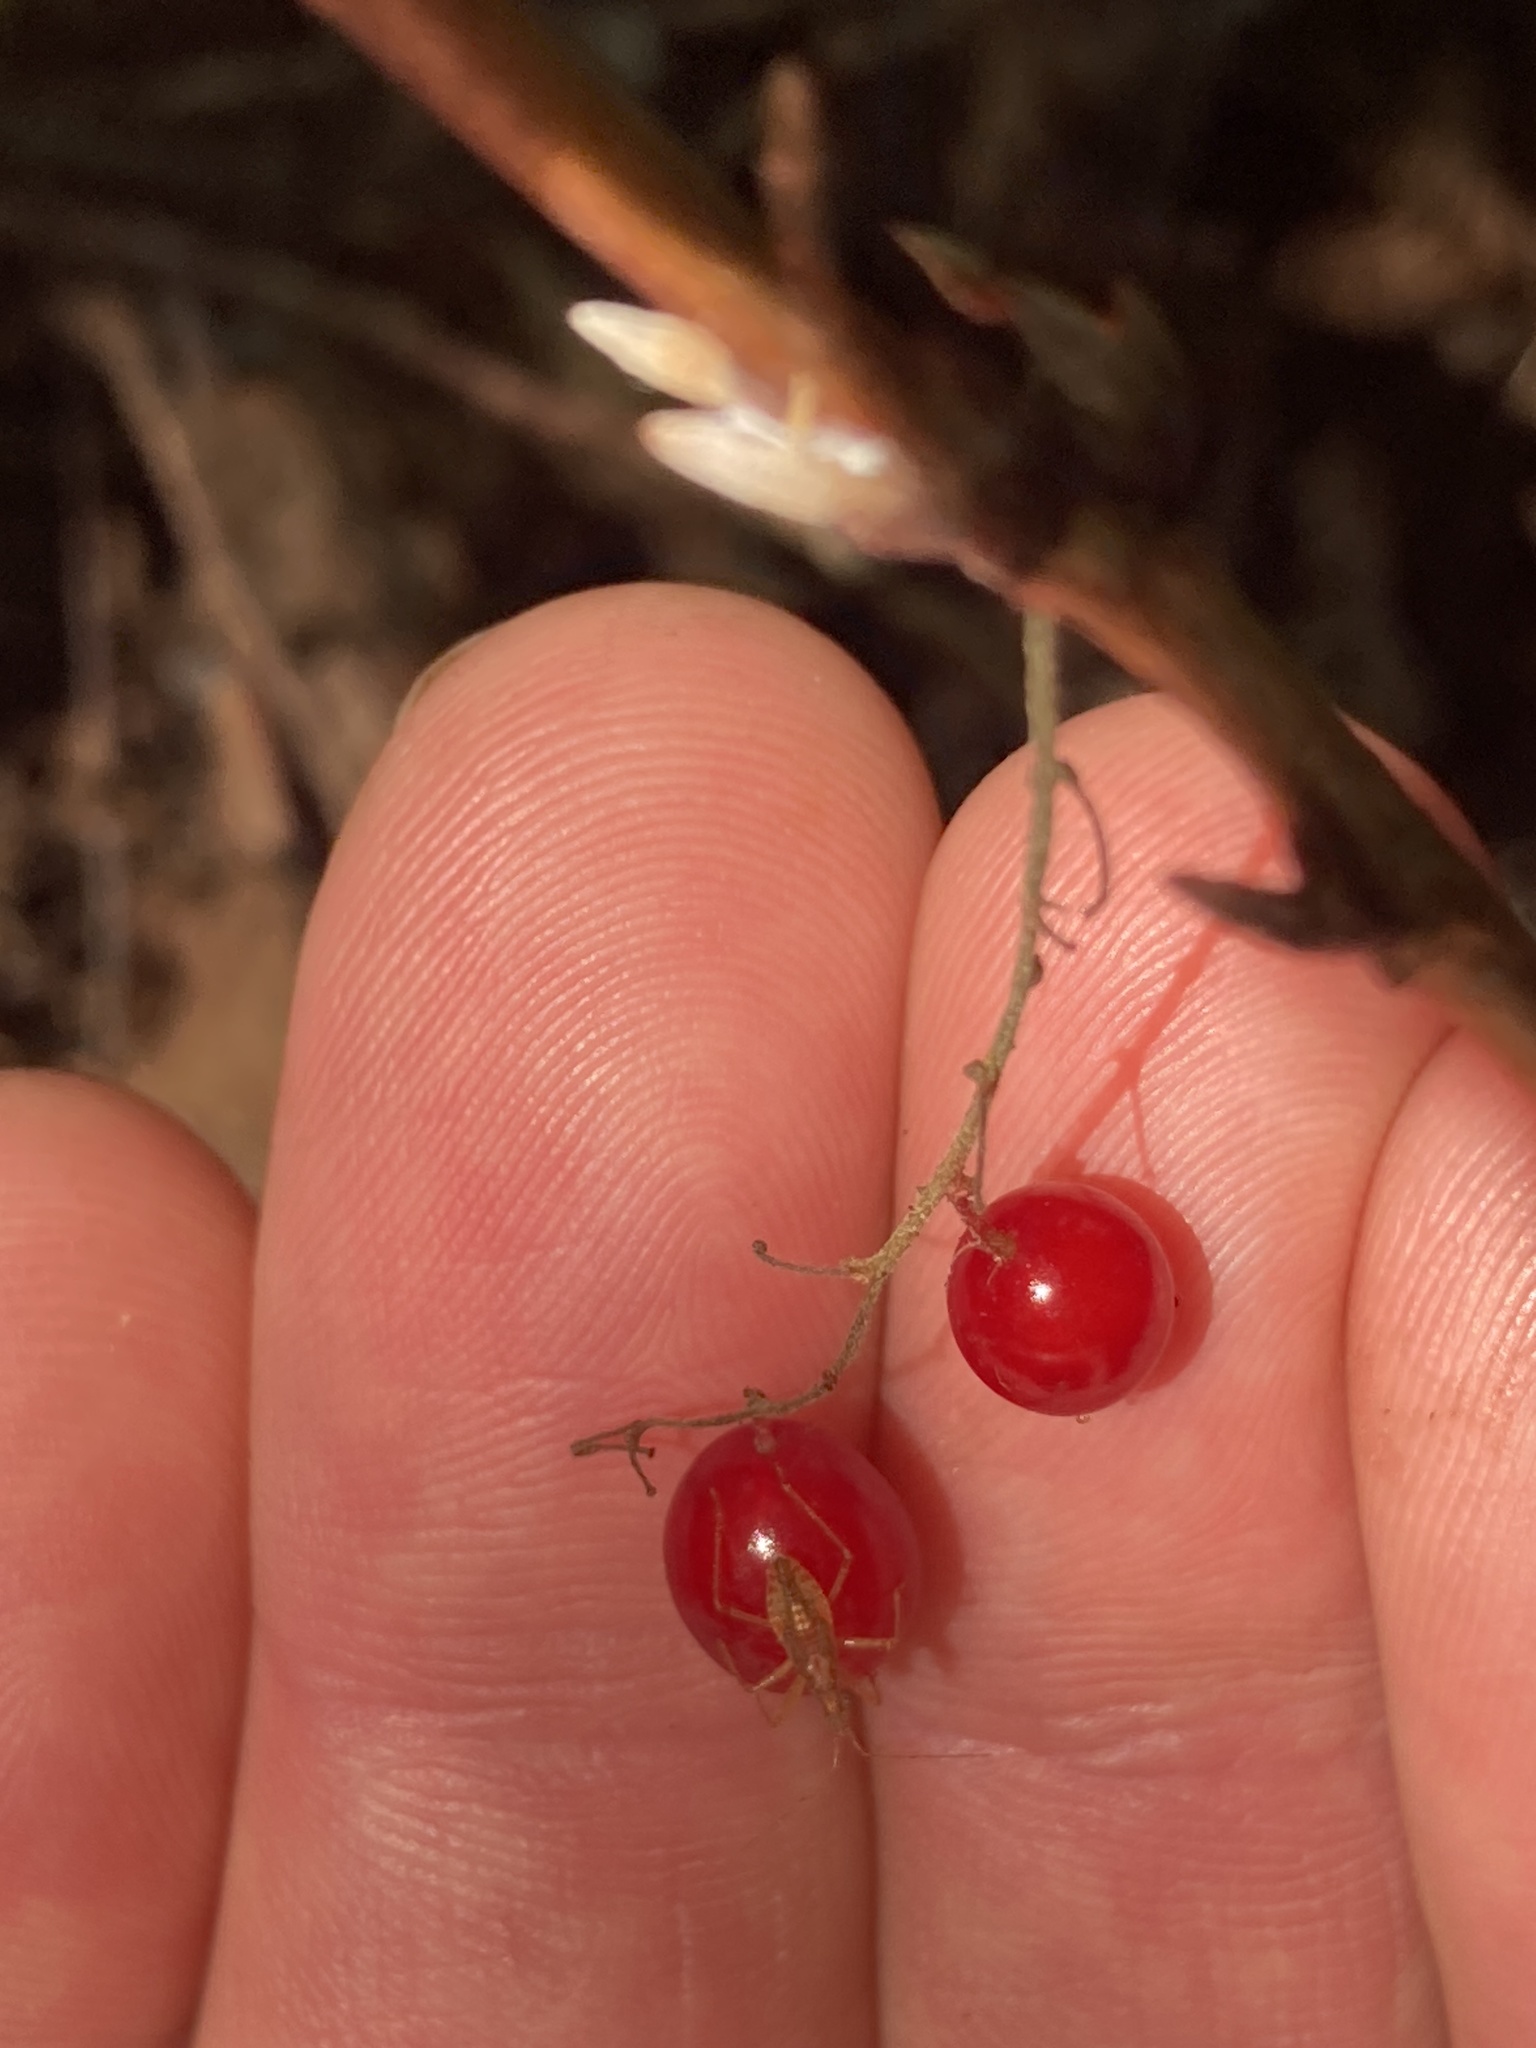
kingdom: Plantae
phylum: Tracheophyta
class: Magnoliopsida
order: Saxifragales
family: Grossulariaceae
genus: Ribes
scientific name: Ribes triste
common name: Swamp red currant
